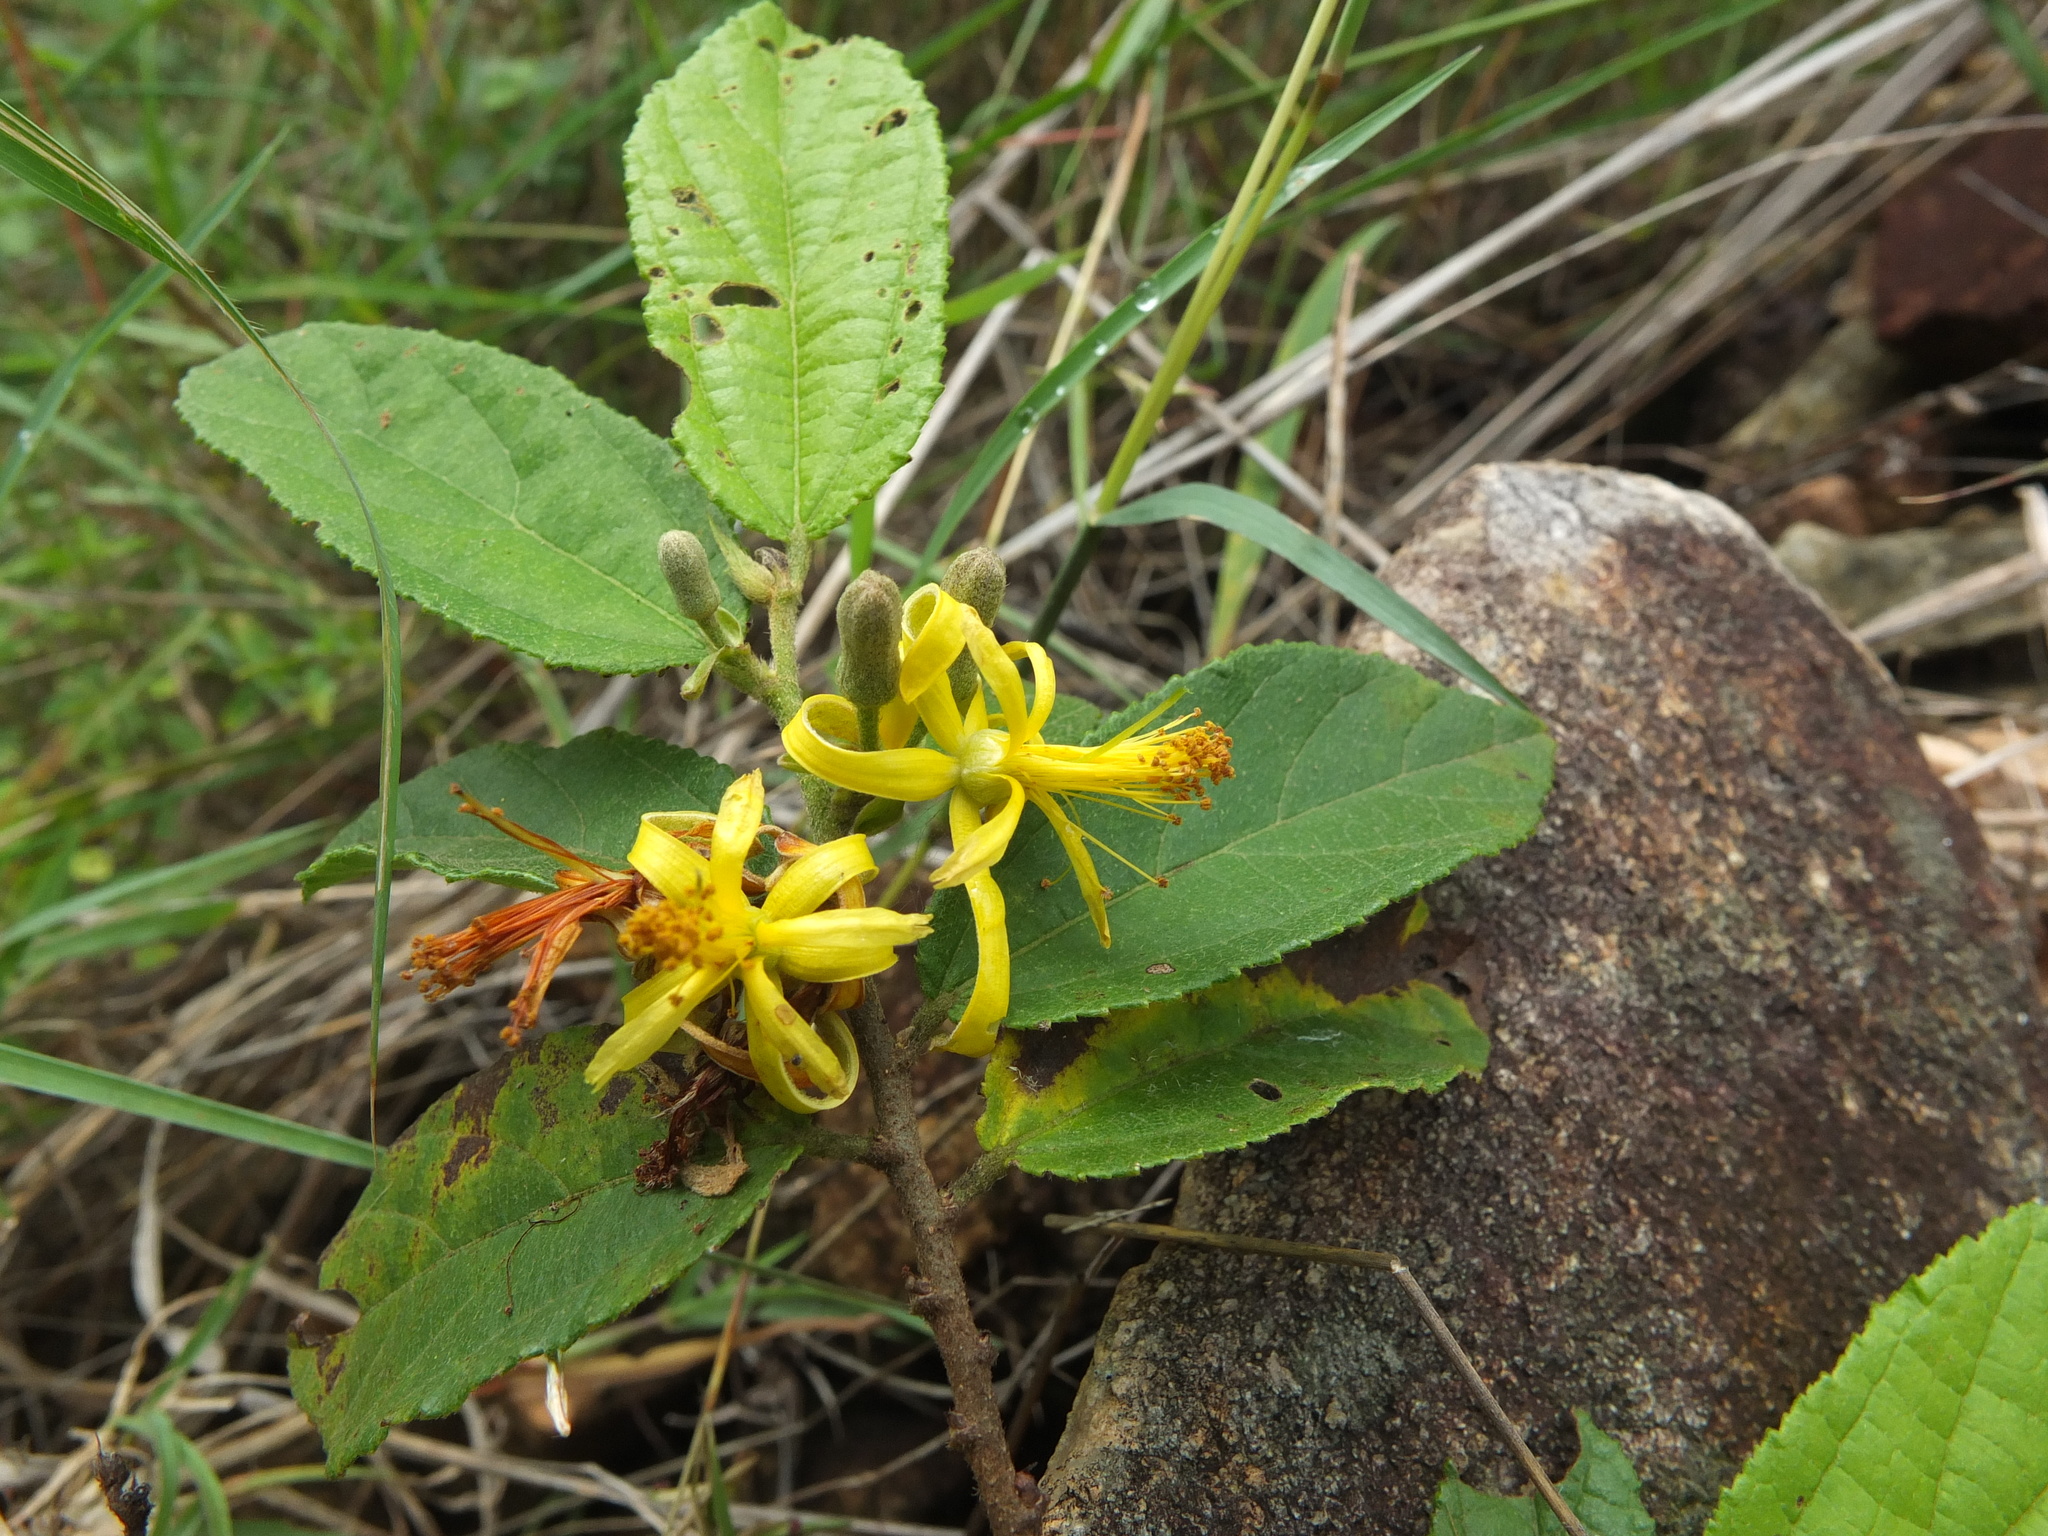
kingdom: Plantae
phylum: Tracheophyta
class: Magnoliopsida
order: Malvales
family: Malvaceae
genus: Grewia
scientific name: Grewia flavescens
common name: Sandpaper raisin
